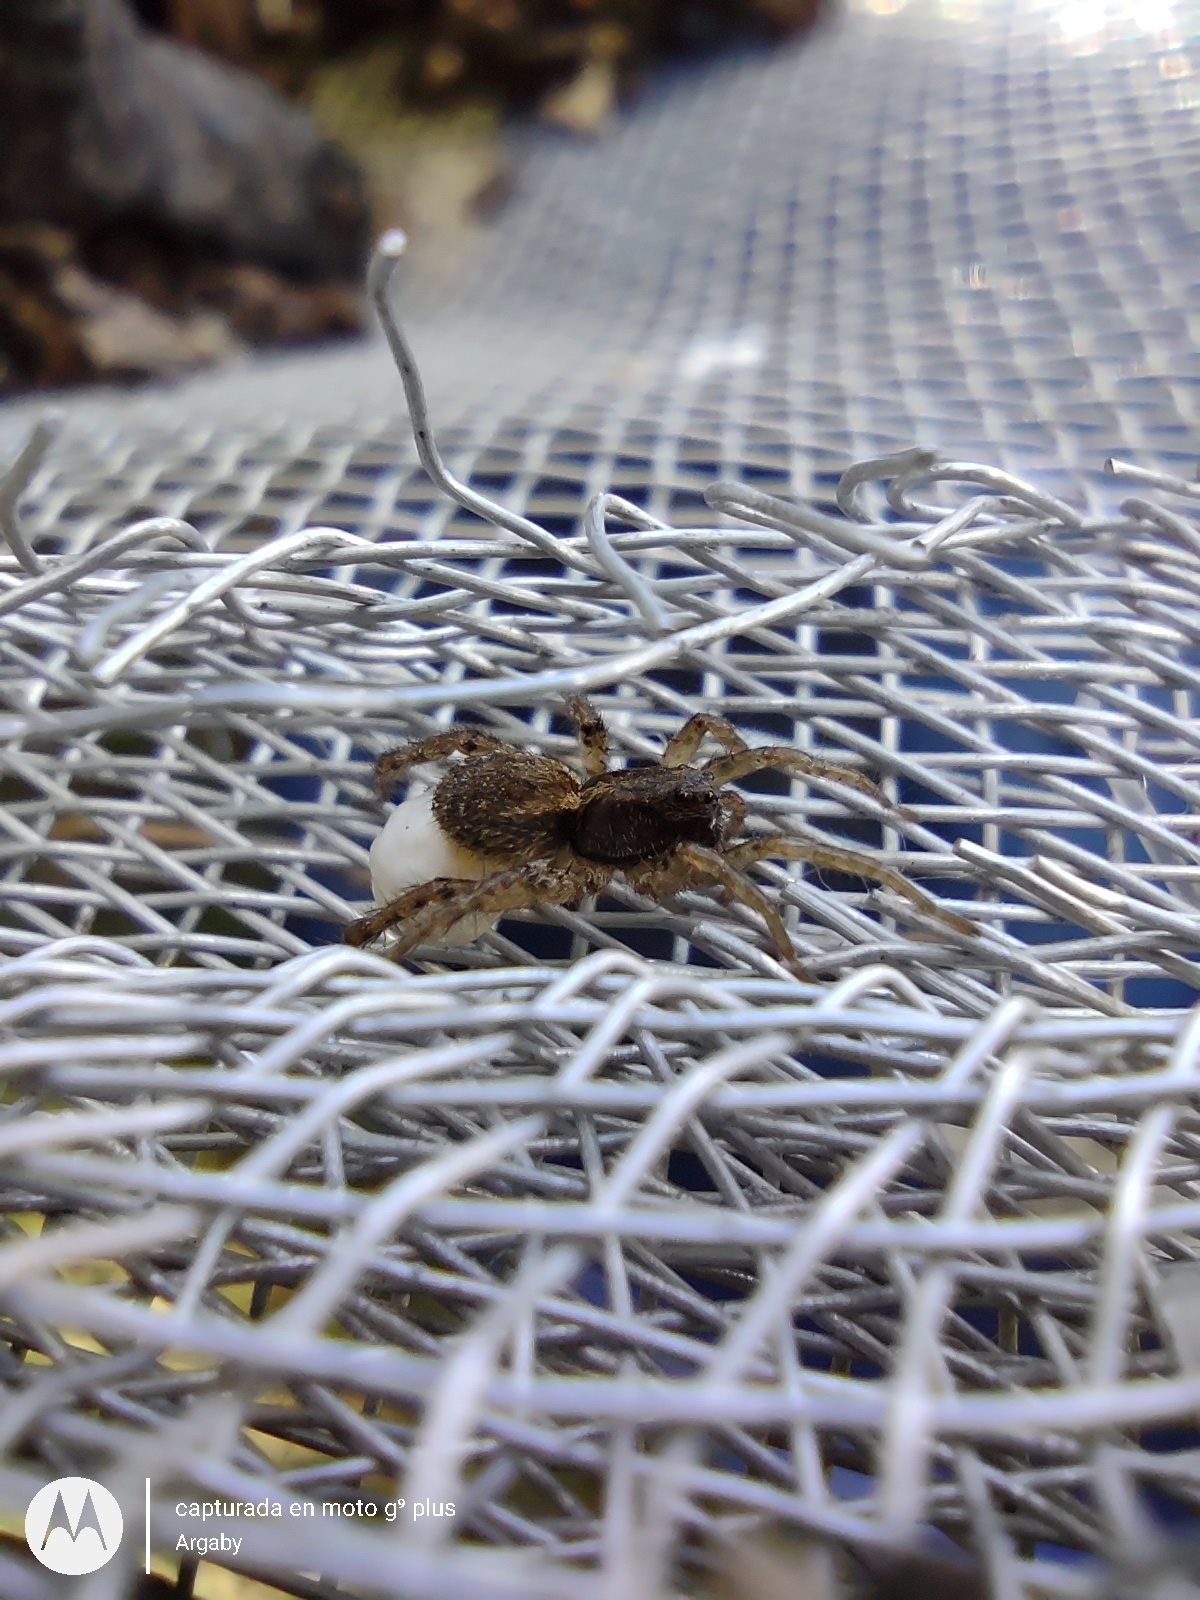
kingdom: Animalia
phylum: Arthropoda
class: Arachnida
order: Araneae
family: Lycosidae
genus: Abaycosa
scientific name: Abaycosa nanica
